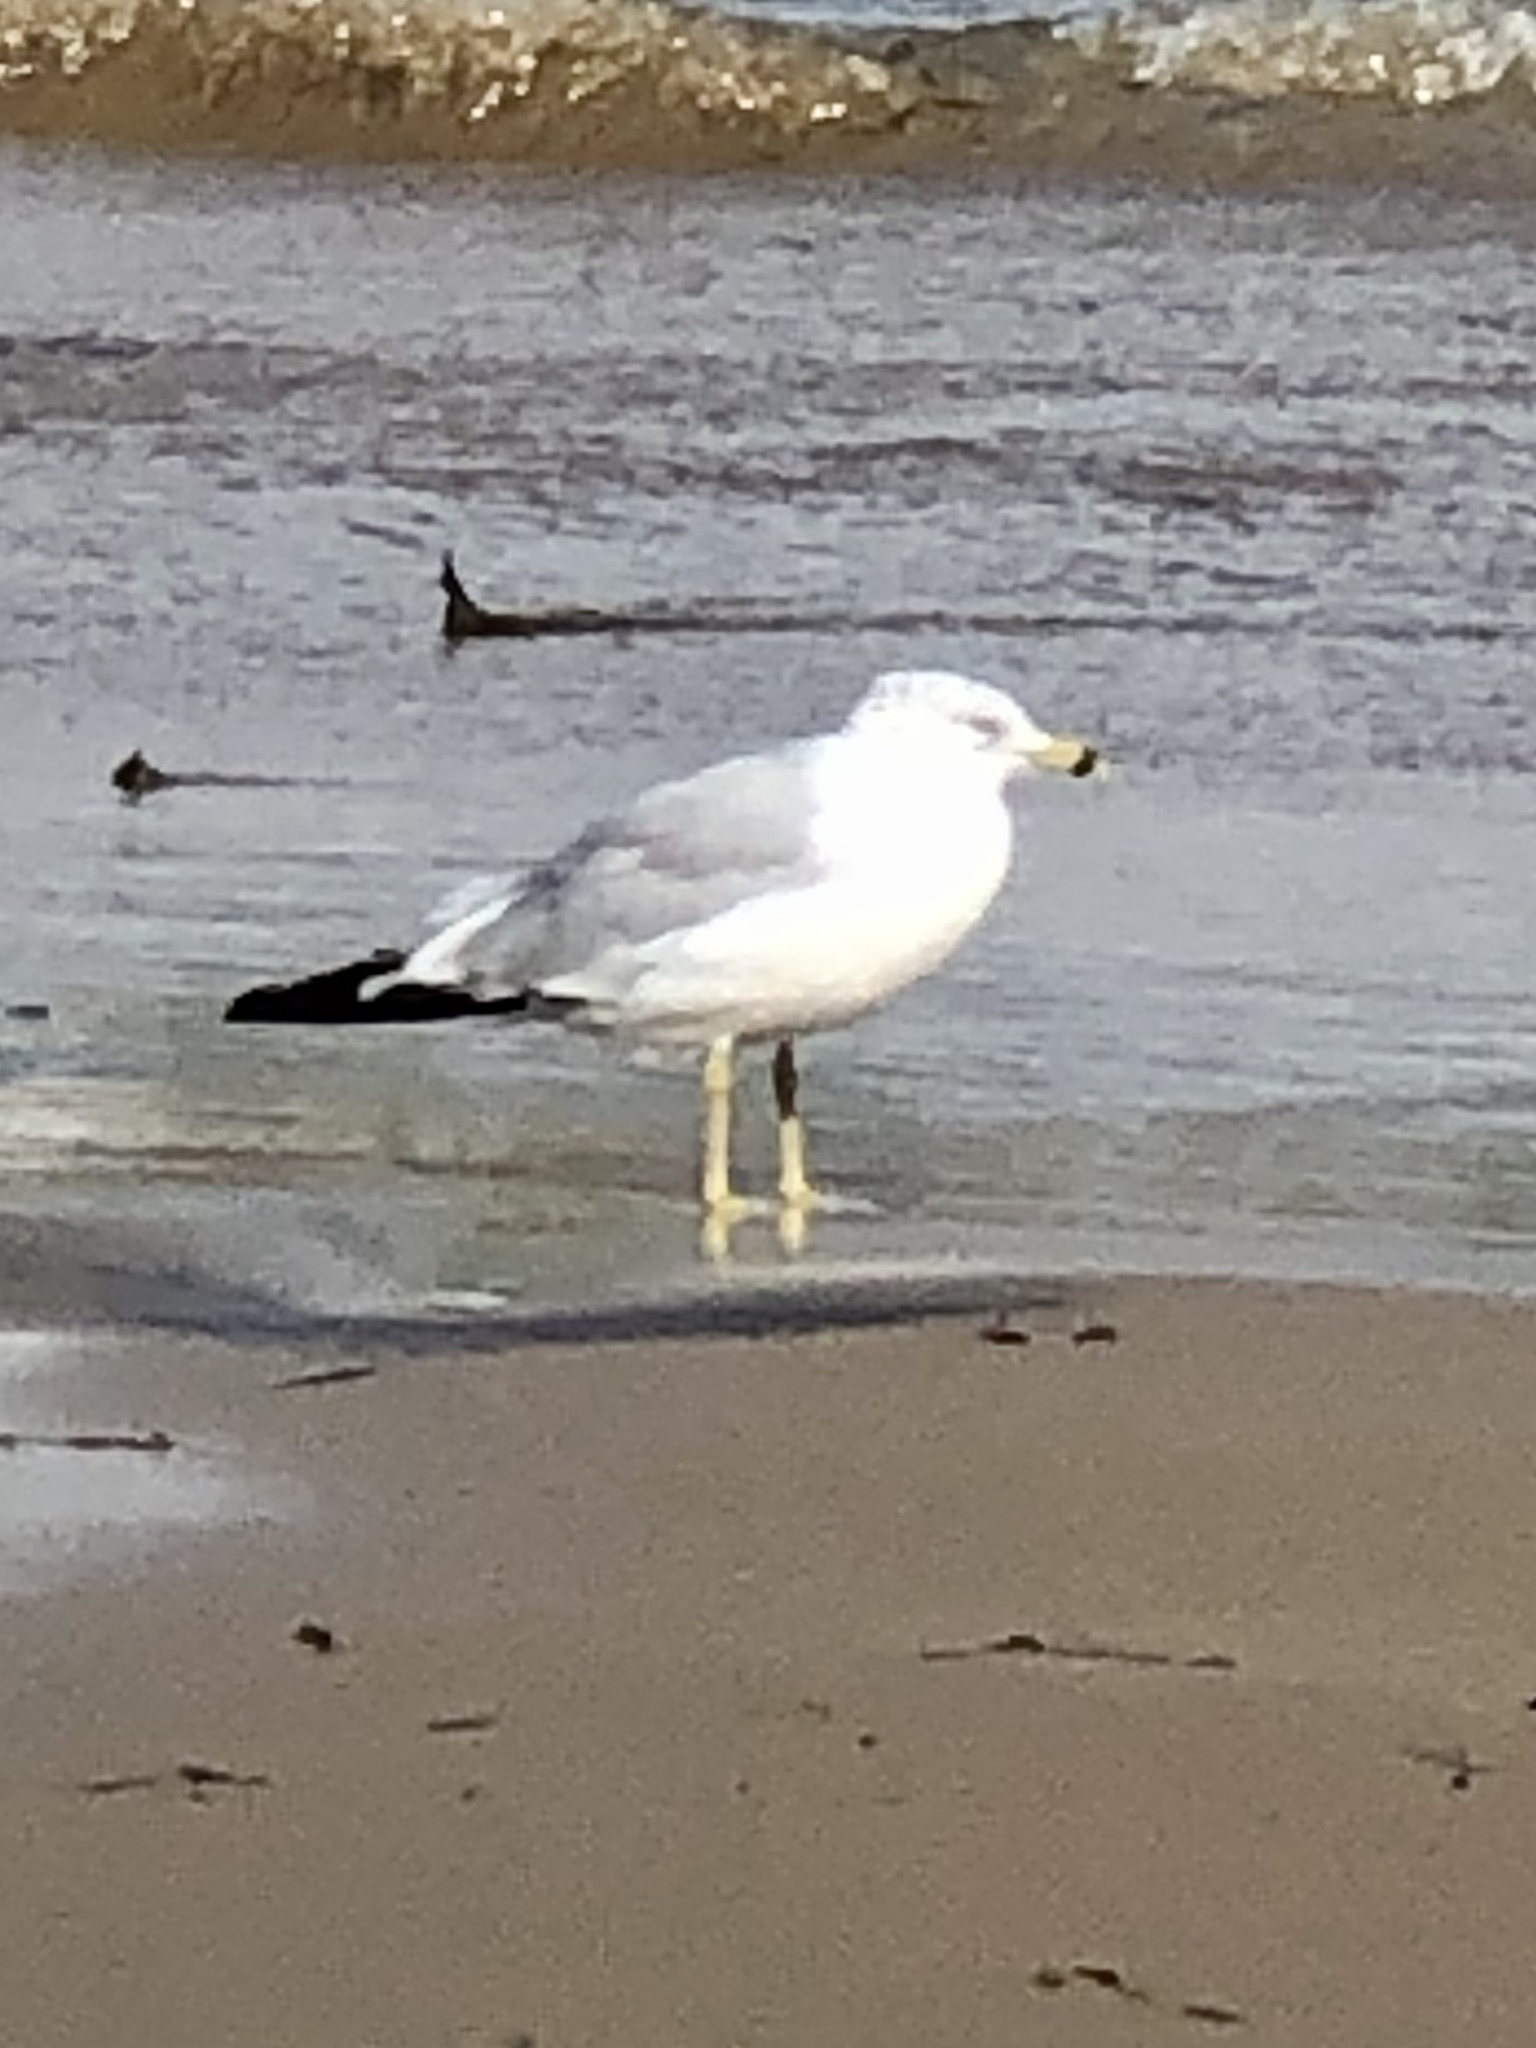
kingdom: Animalia
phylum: Chordata
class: Aves
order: Charadriiformes
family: Laridae
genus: Larus
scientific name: Larus delawarensis
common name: Ring-billed gull
